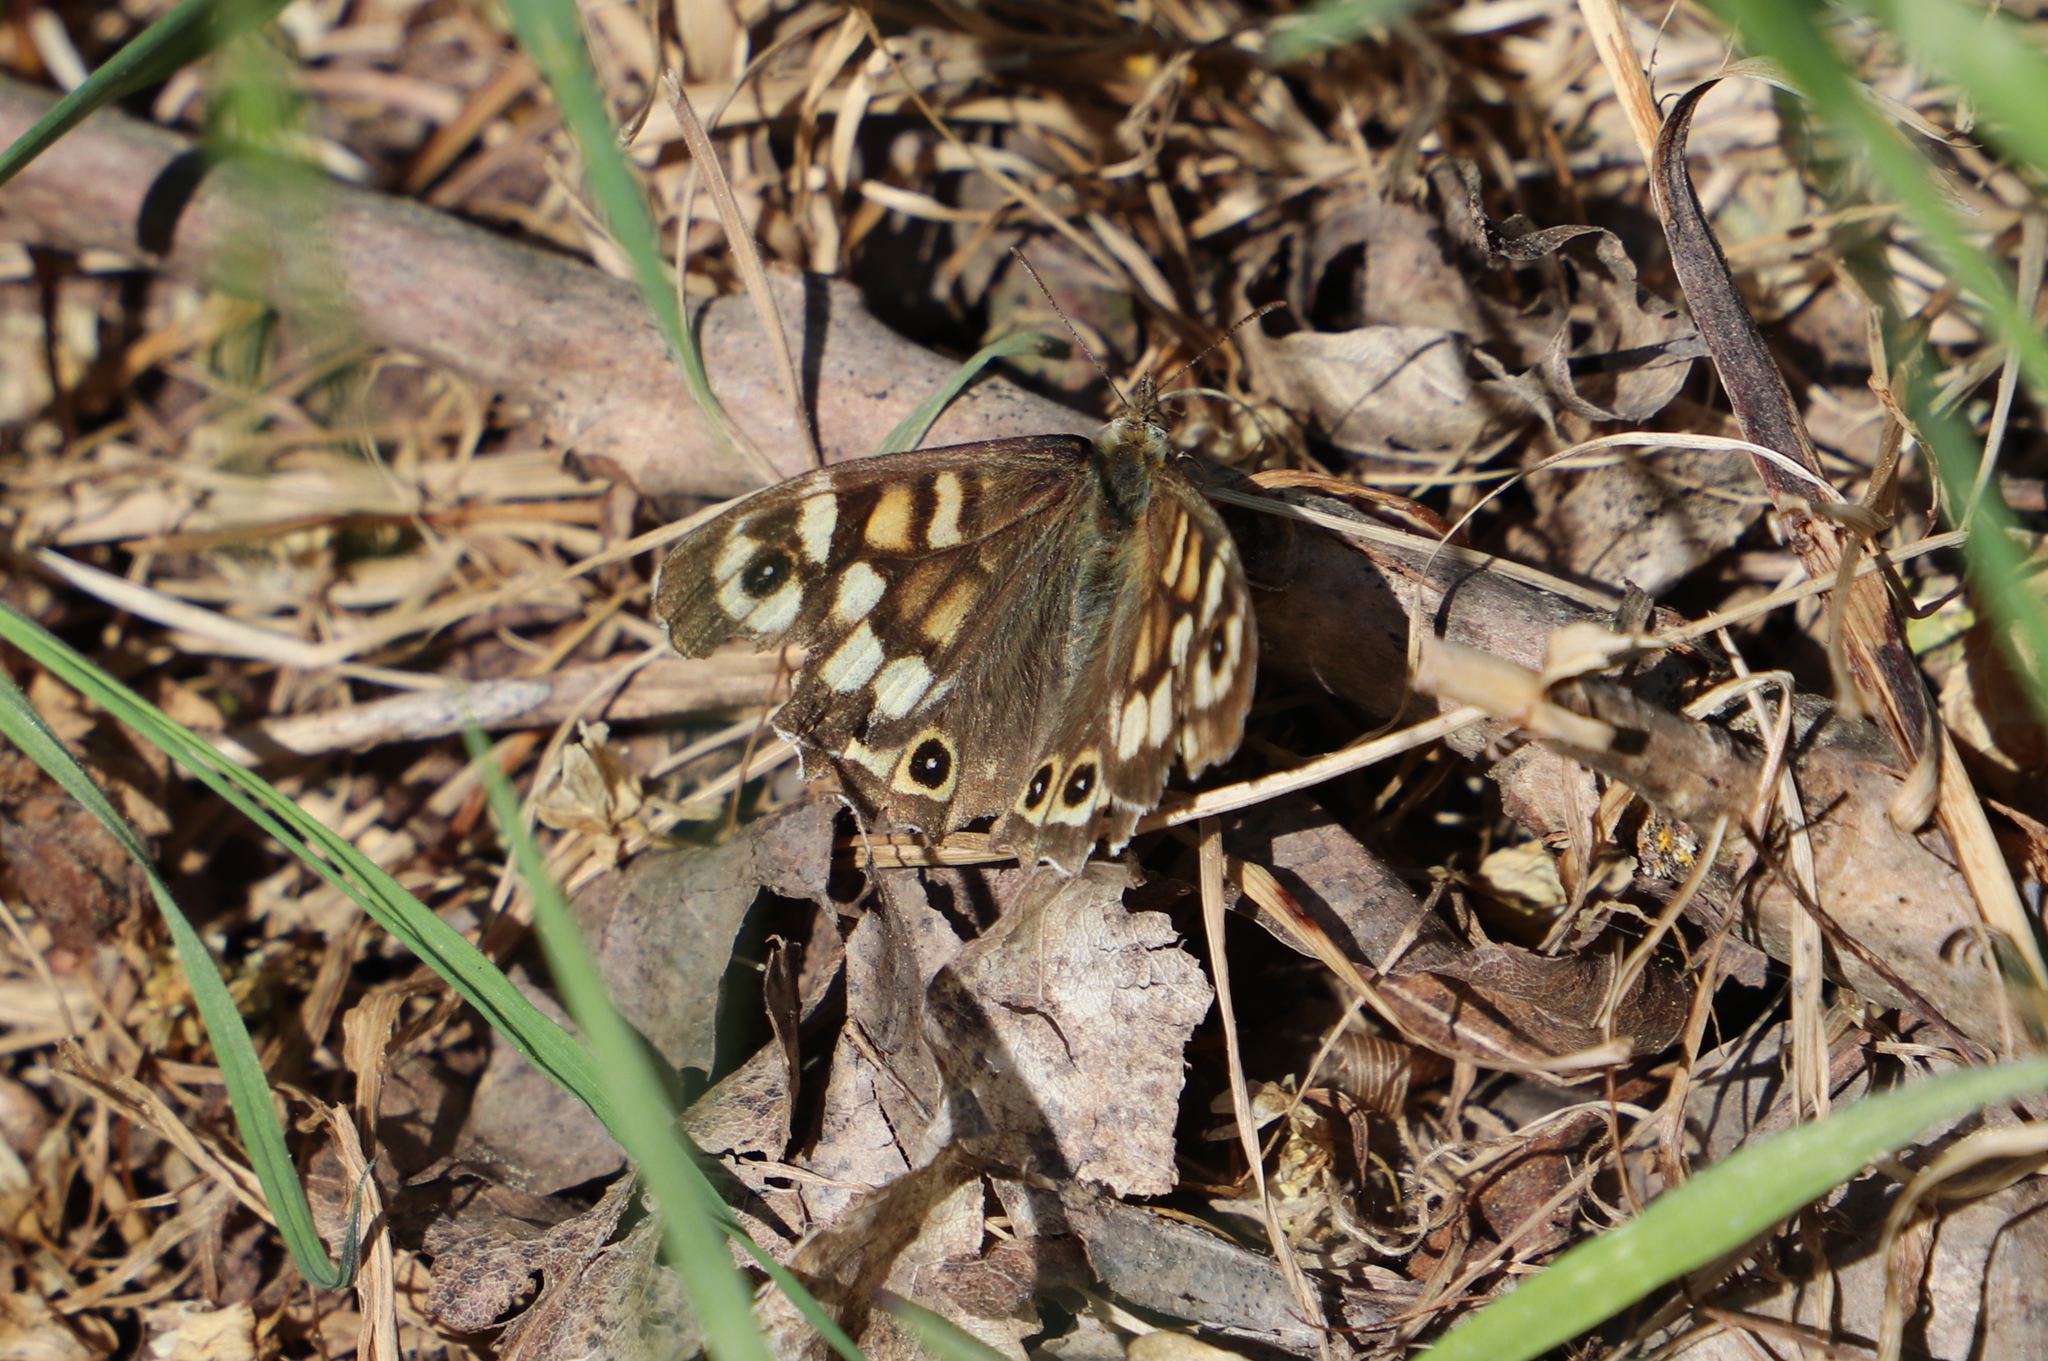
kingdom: Animalia
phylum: Arthropoda
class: Insecta
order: Lepidoptera
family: Nymphalidae
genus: Pararge
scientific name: Pararge aegeria
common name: Speckled wood
